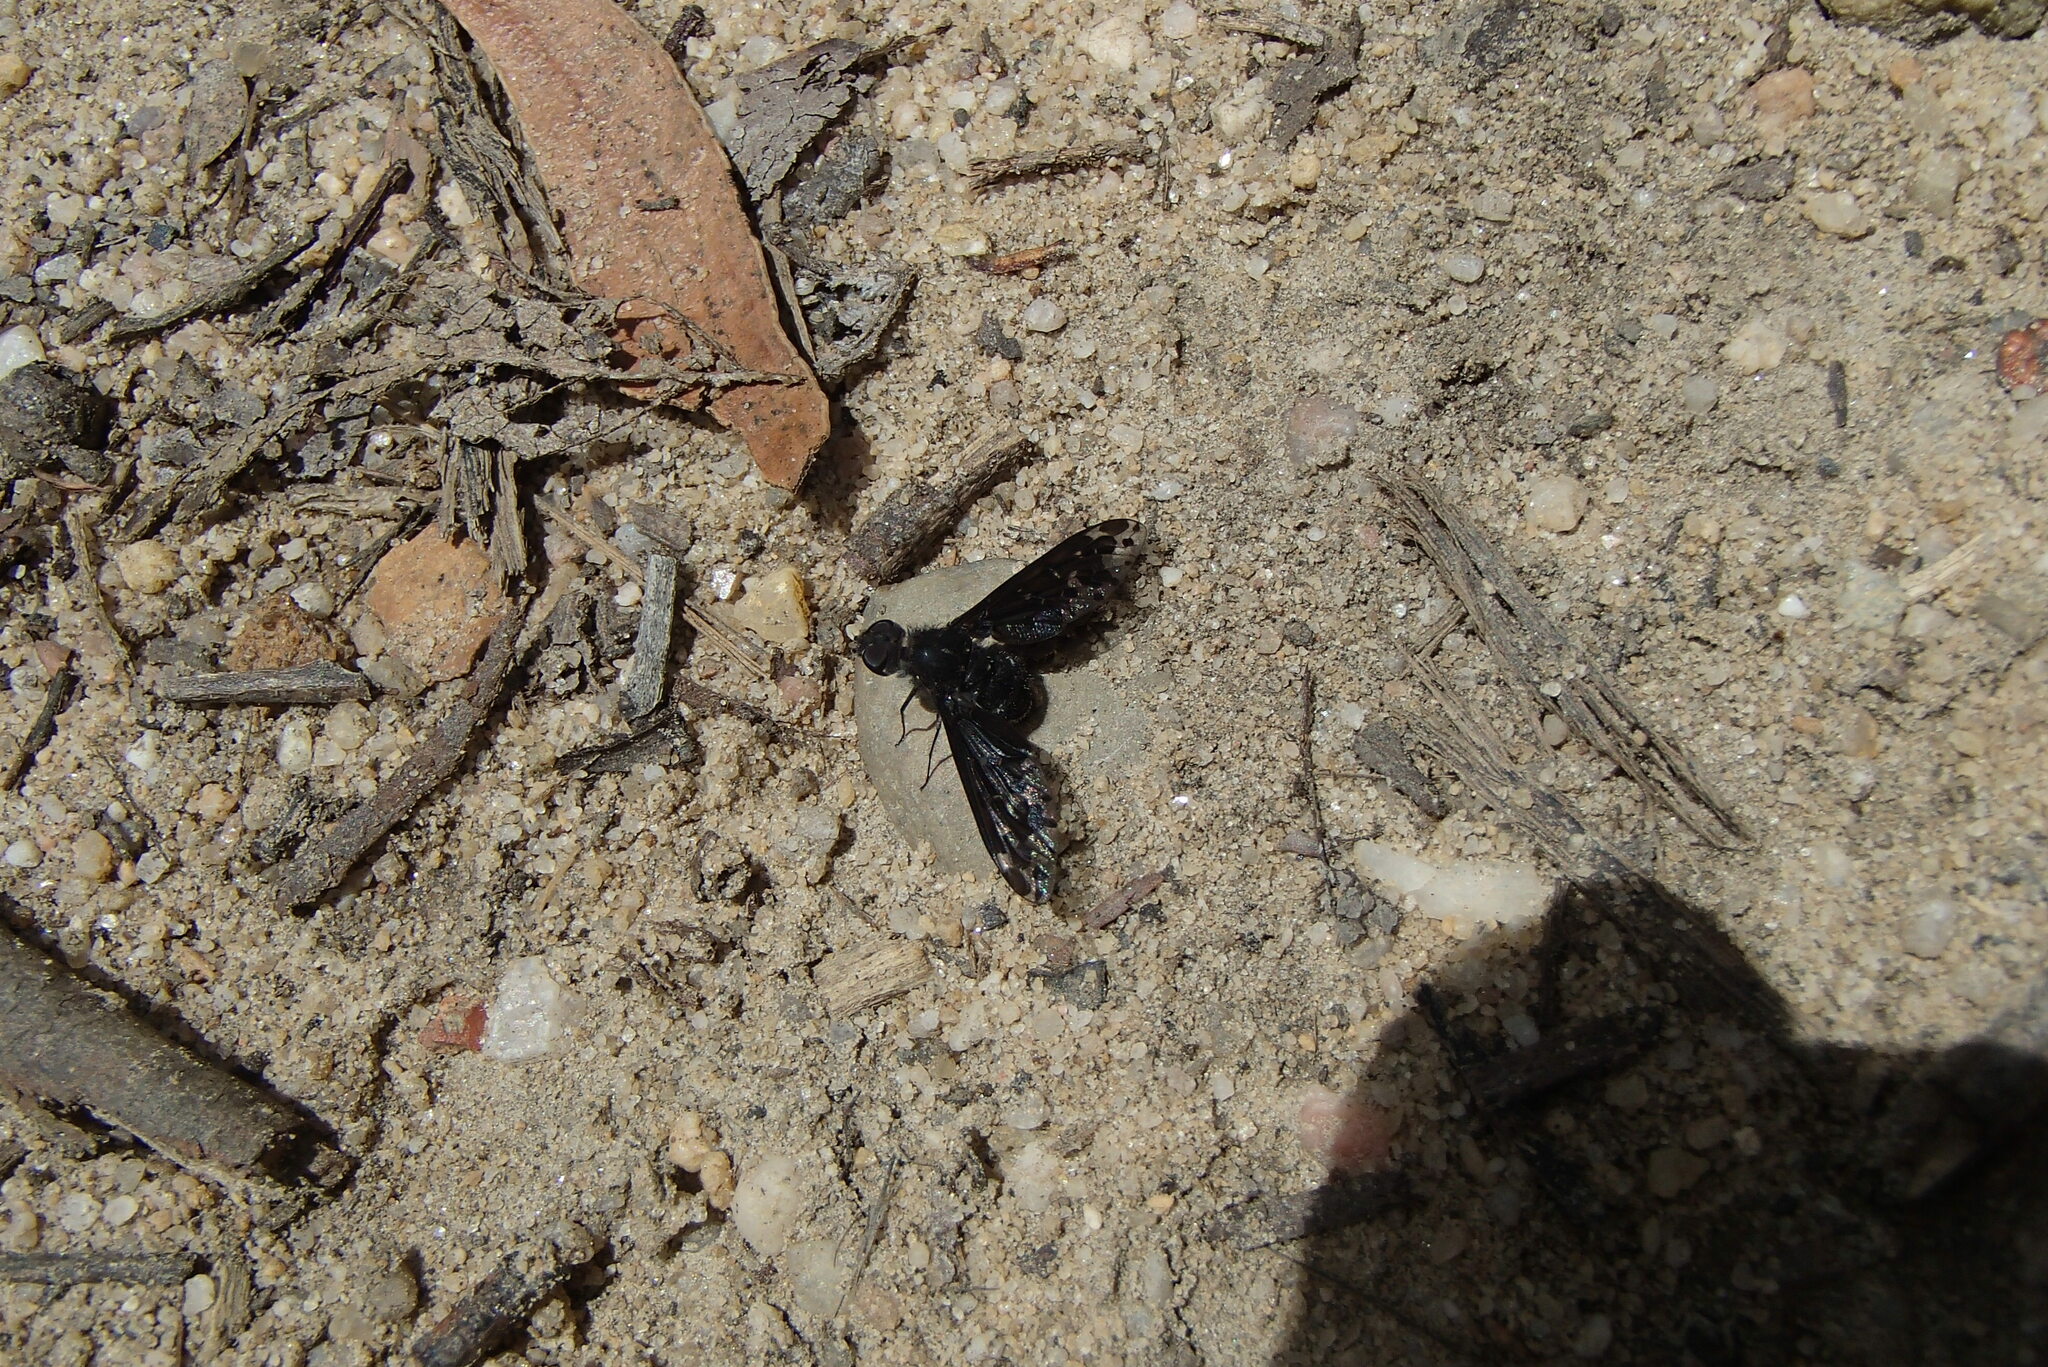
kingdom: Animalia
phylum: Arthropoda
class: Insecta
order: Diptera
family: Bombyliidae
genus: Anthrax
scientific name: Anthrax maculata
